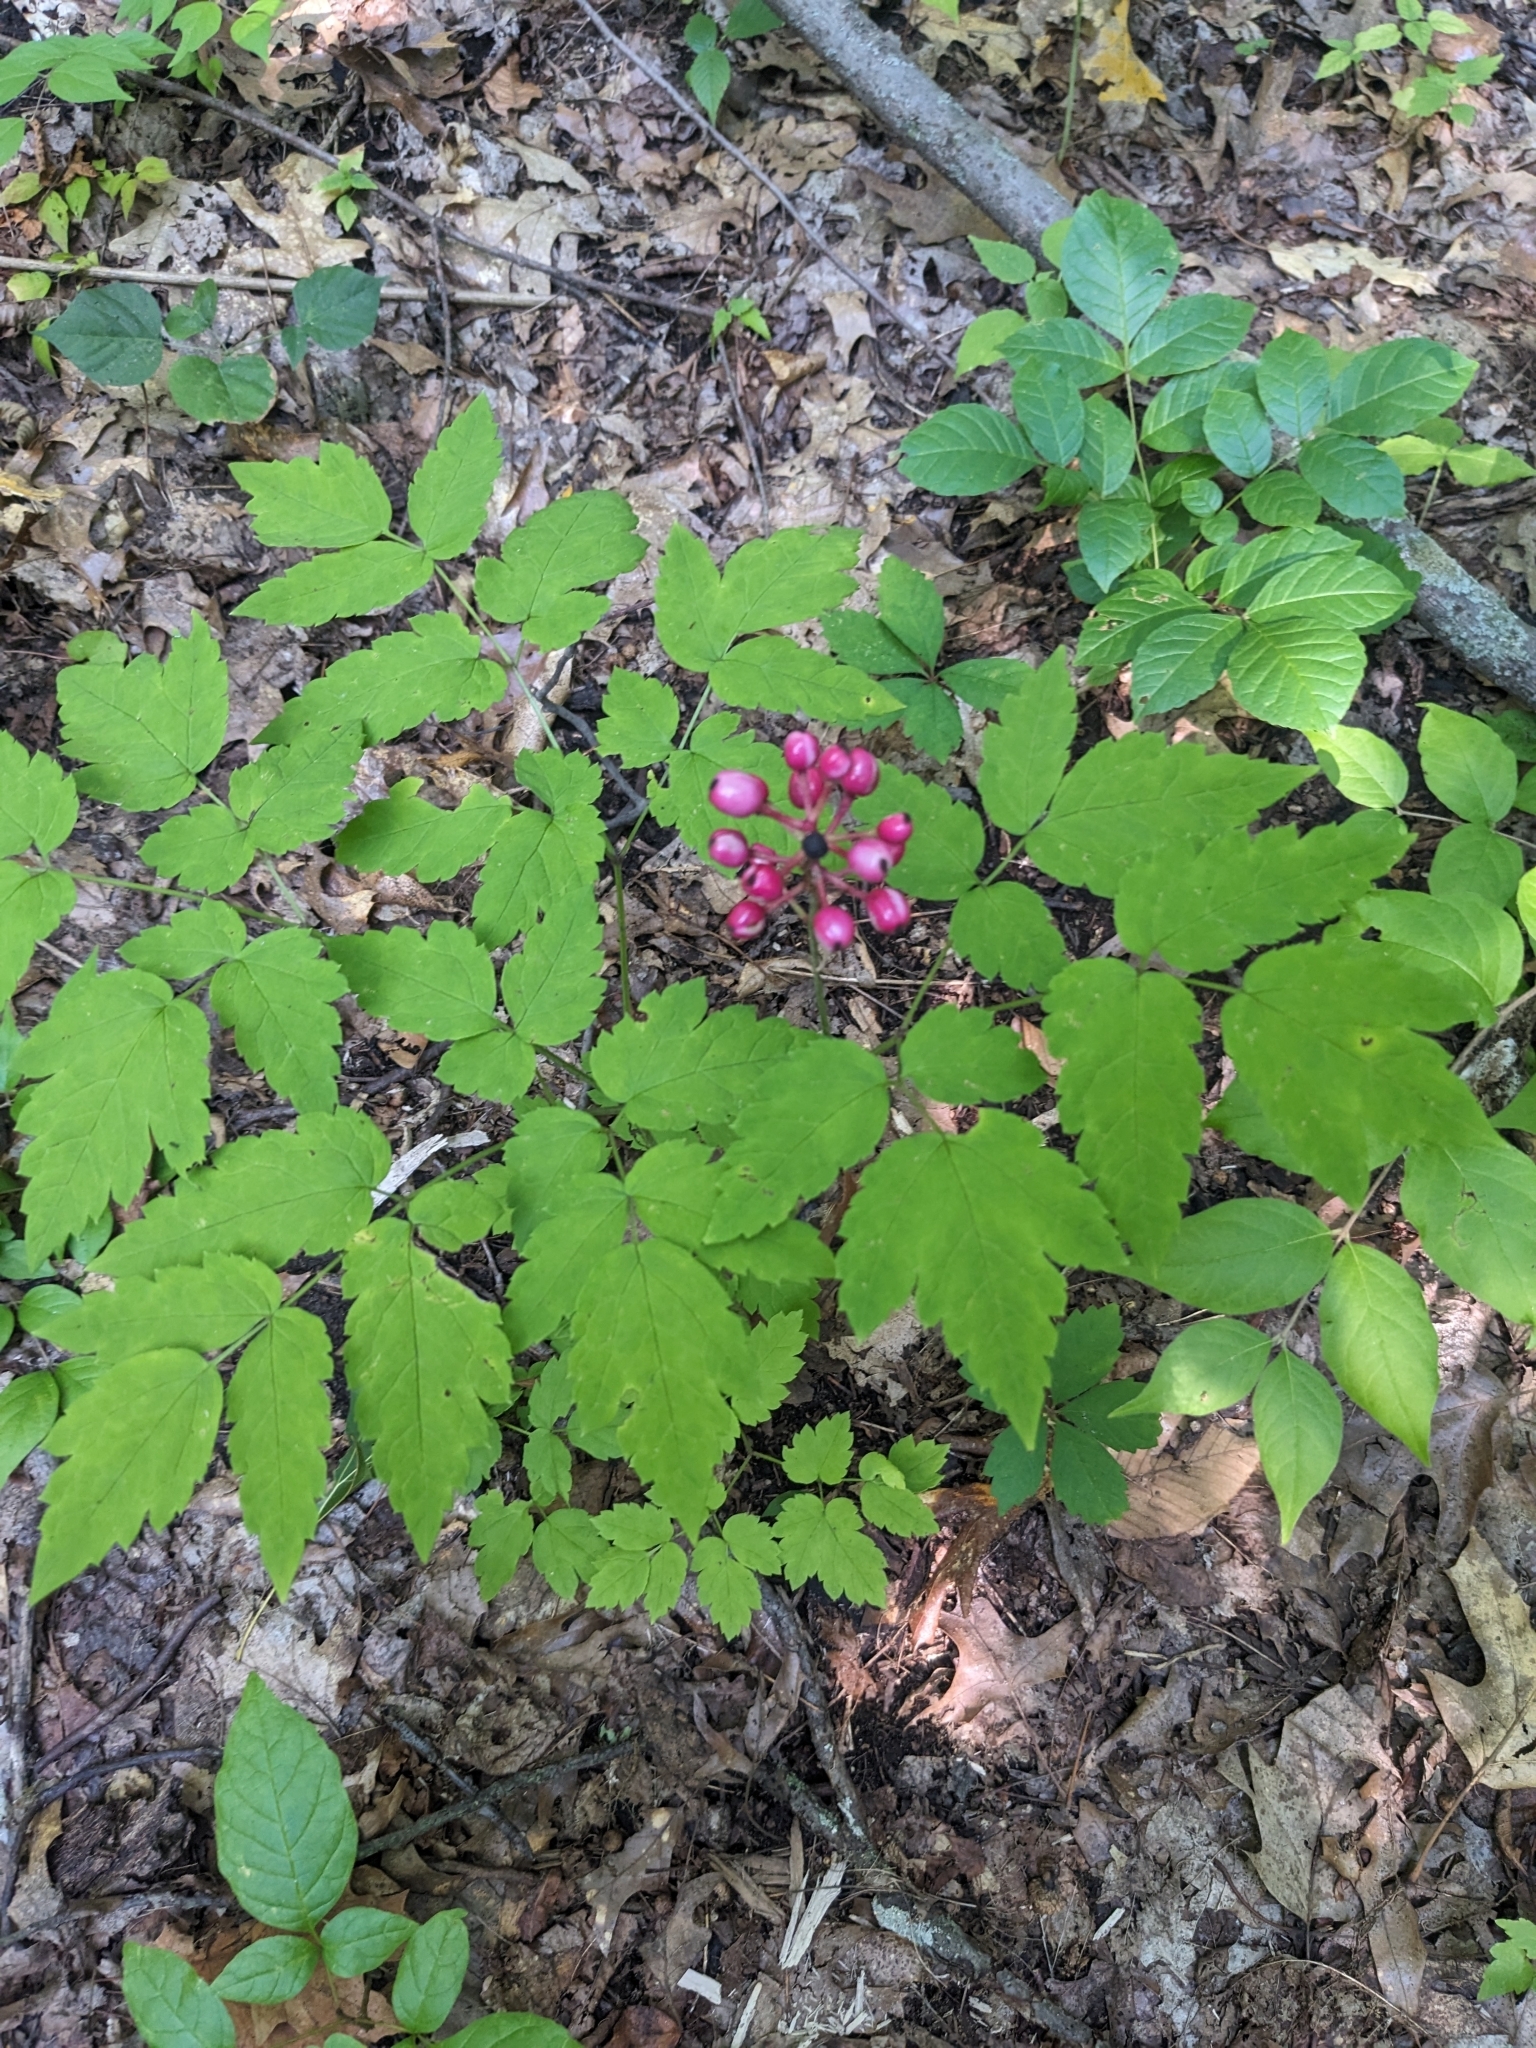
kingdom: Plantae
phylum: Tracheophyta
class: Magnoliopsida
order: Ranunculales
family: Ranunculaceae
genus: Actaea
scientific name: Actaea pachypoda
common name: Doll's-eyes
